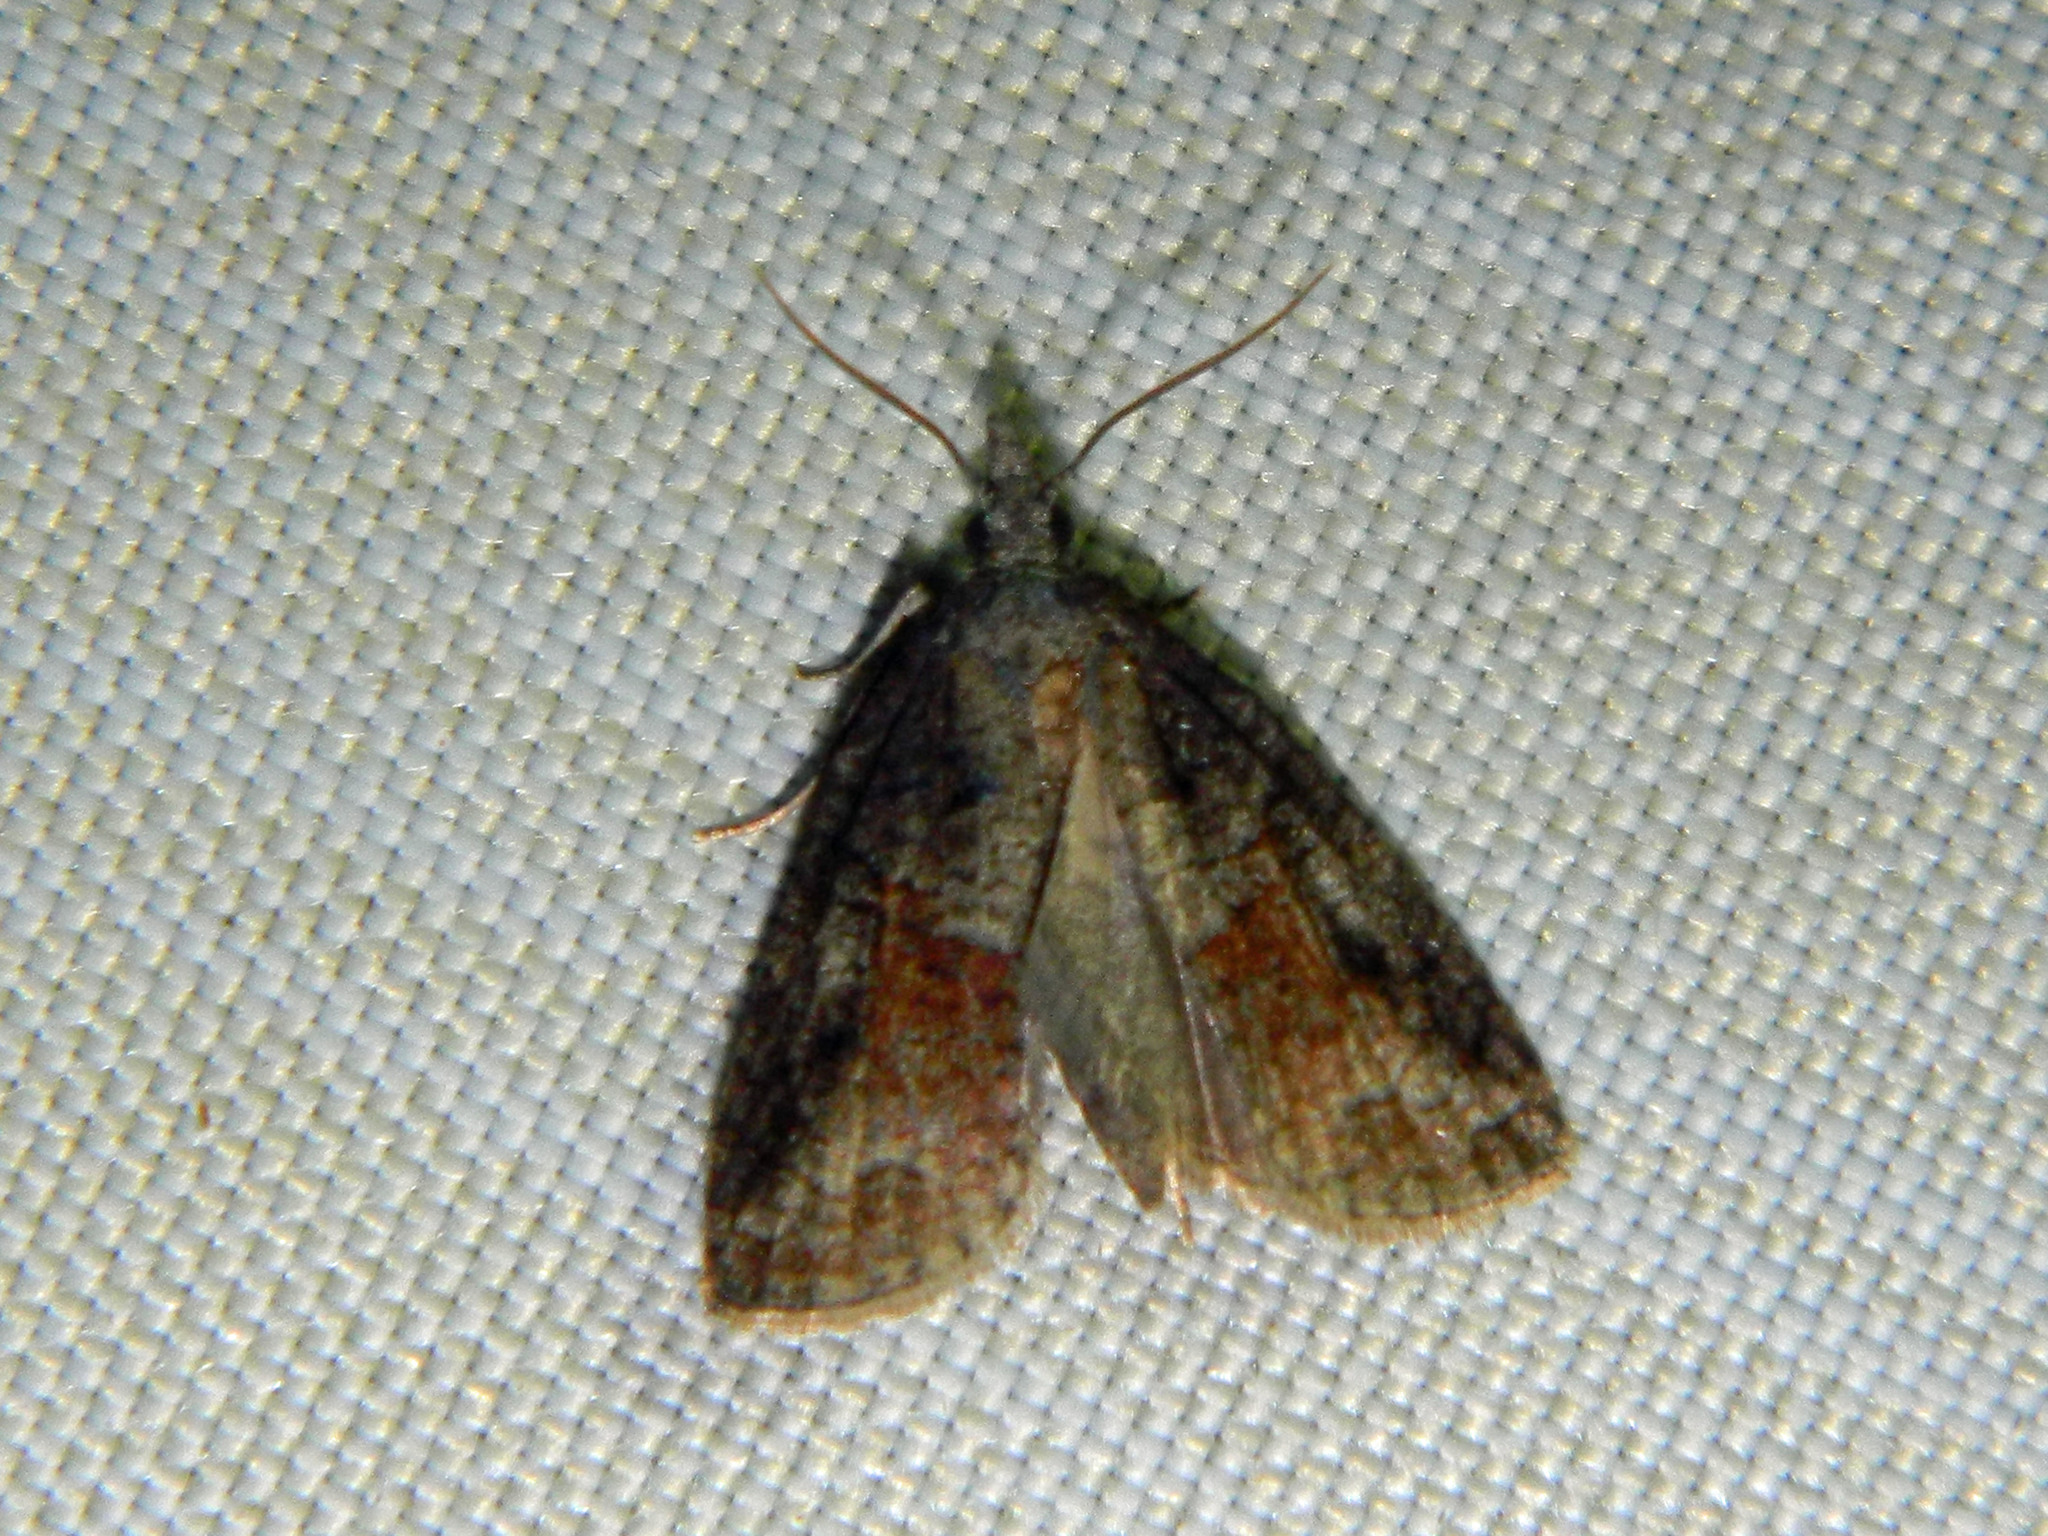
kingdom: Animalia
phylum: Arthropoda
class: Insecta
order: Lepidoptera
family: Tortricidae
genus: Platynota
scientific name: Platynota idaeusalis
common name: Tufted apple bud moth
